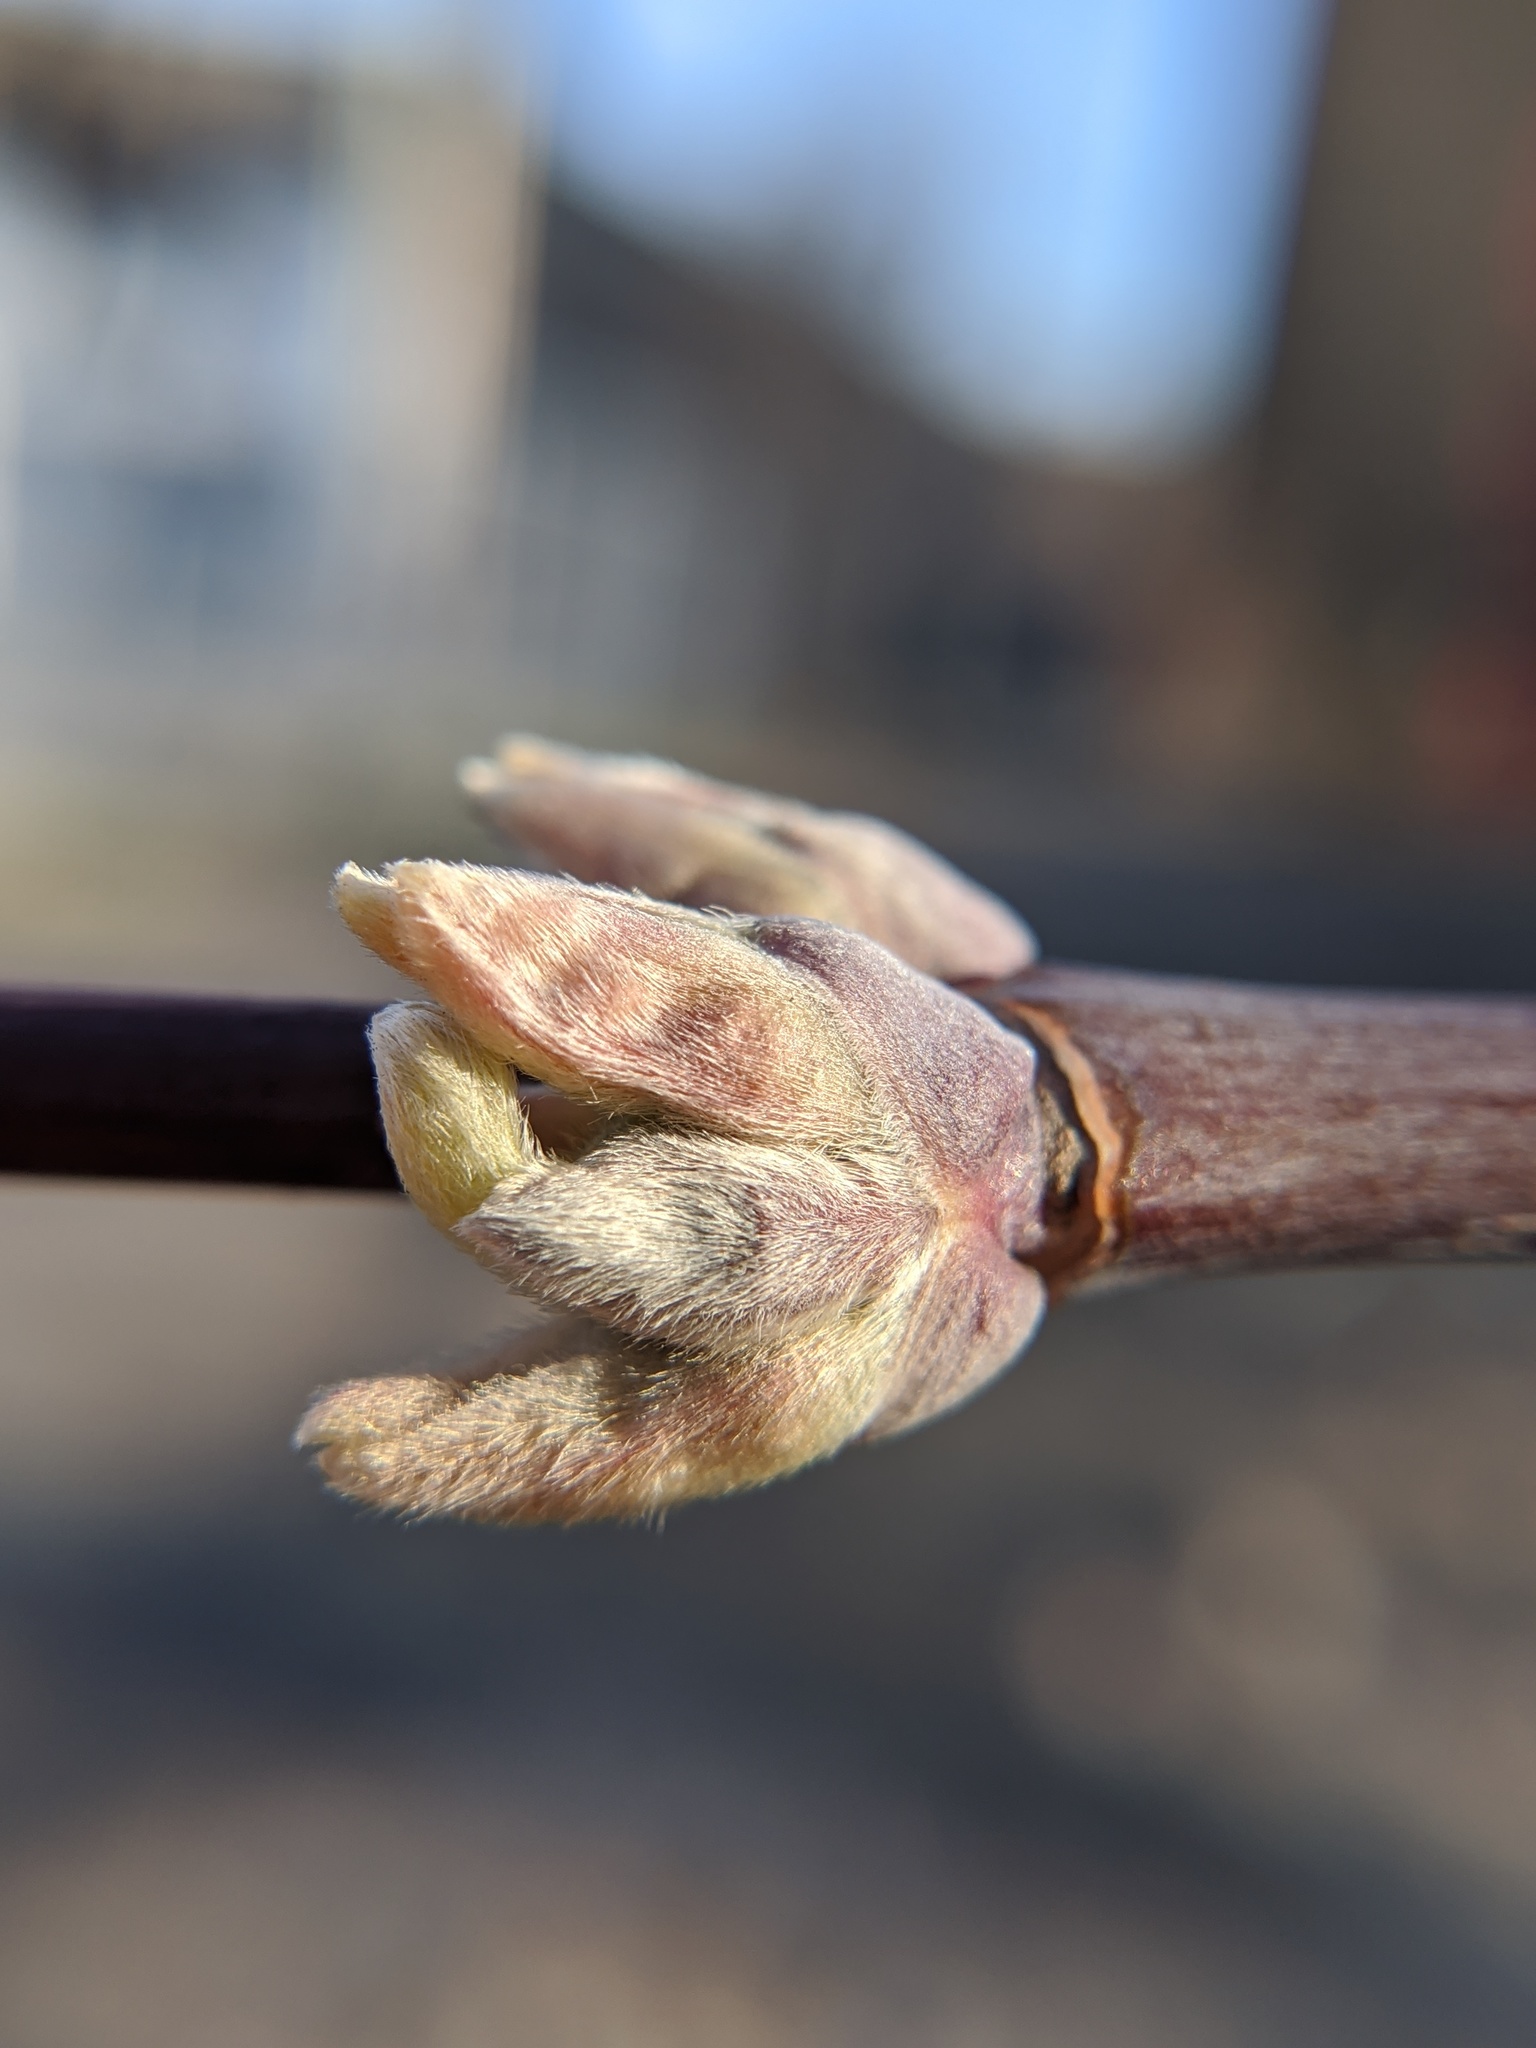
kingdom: Plantae
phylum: Tracheophyta
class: Magnoliopsida
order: Sapindales
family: Sapindaceae
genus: Acer
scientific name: Acer negundo
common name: Ashleaf maple
